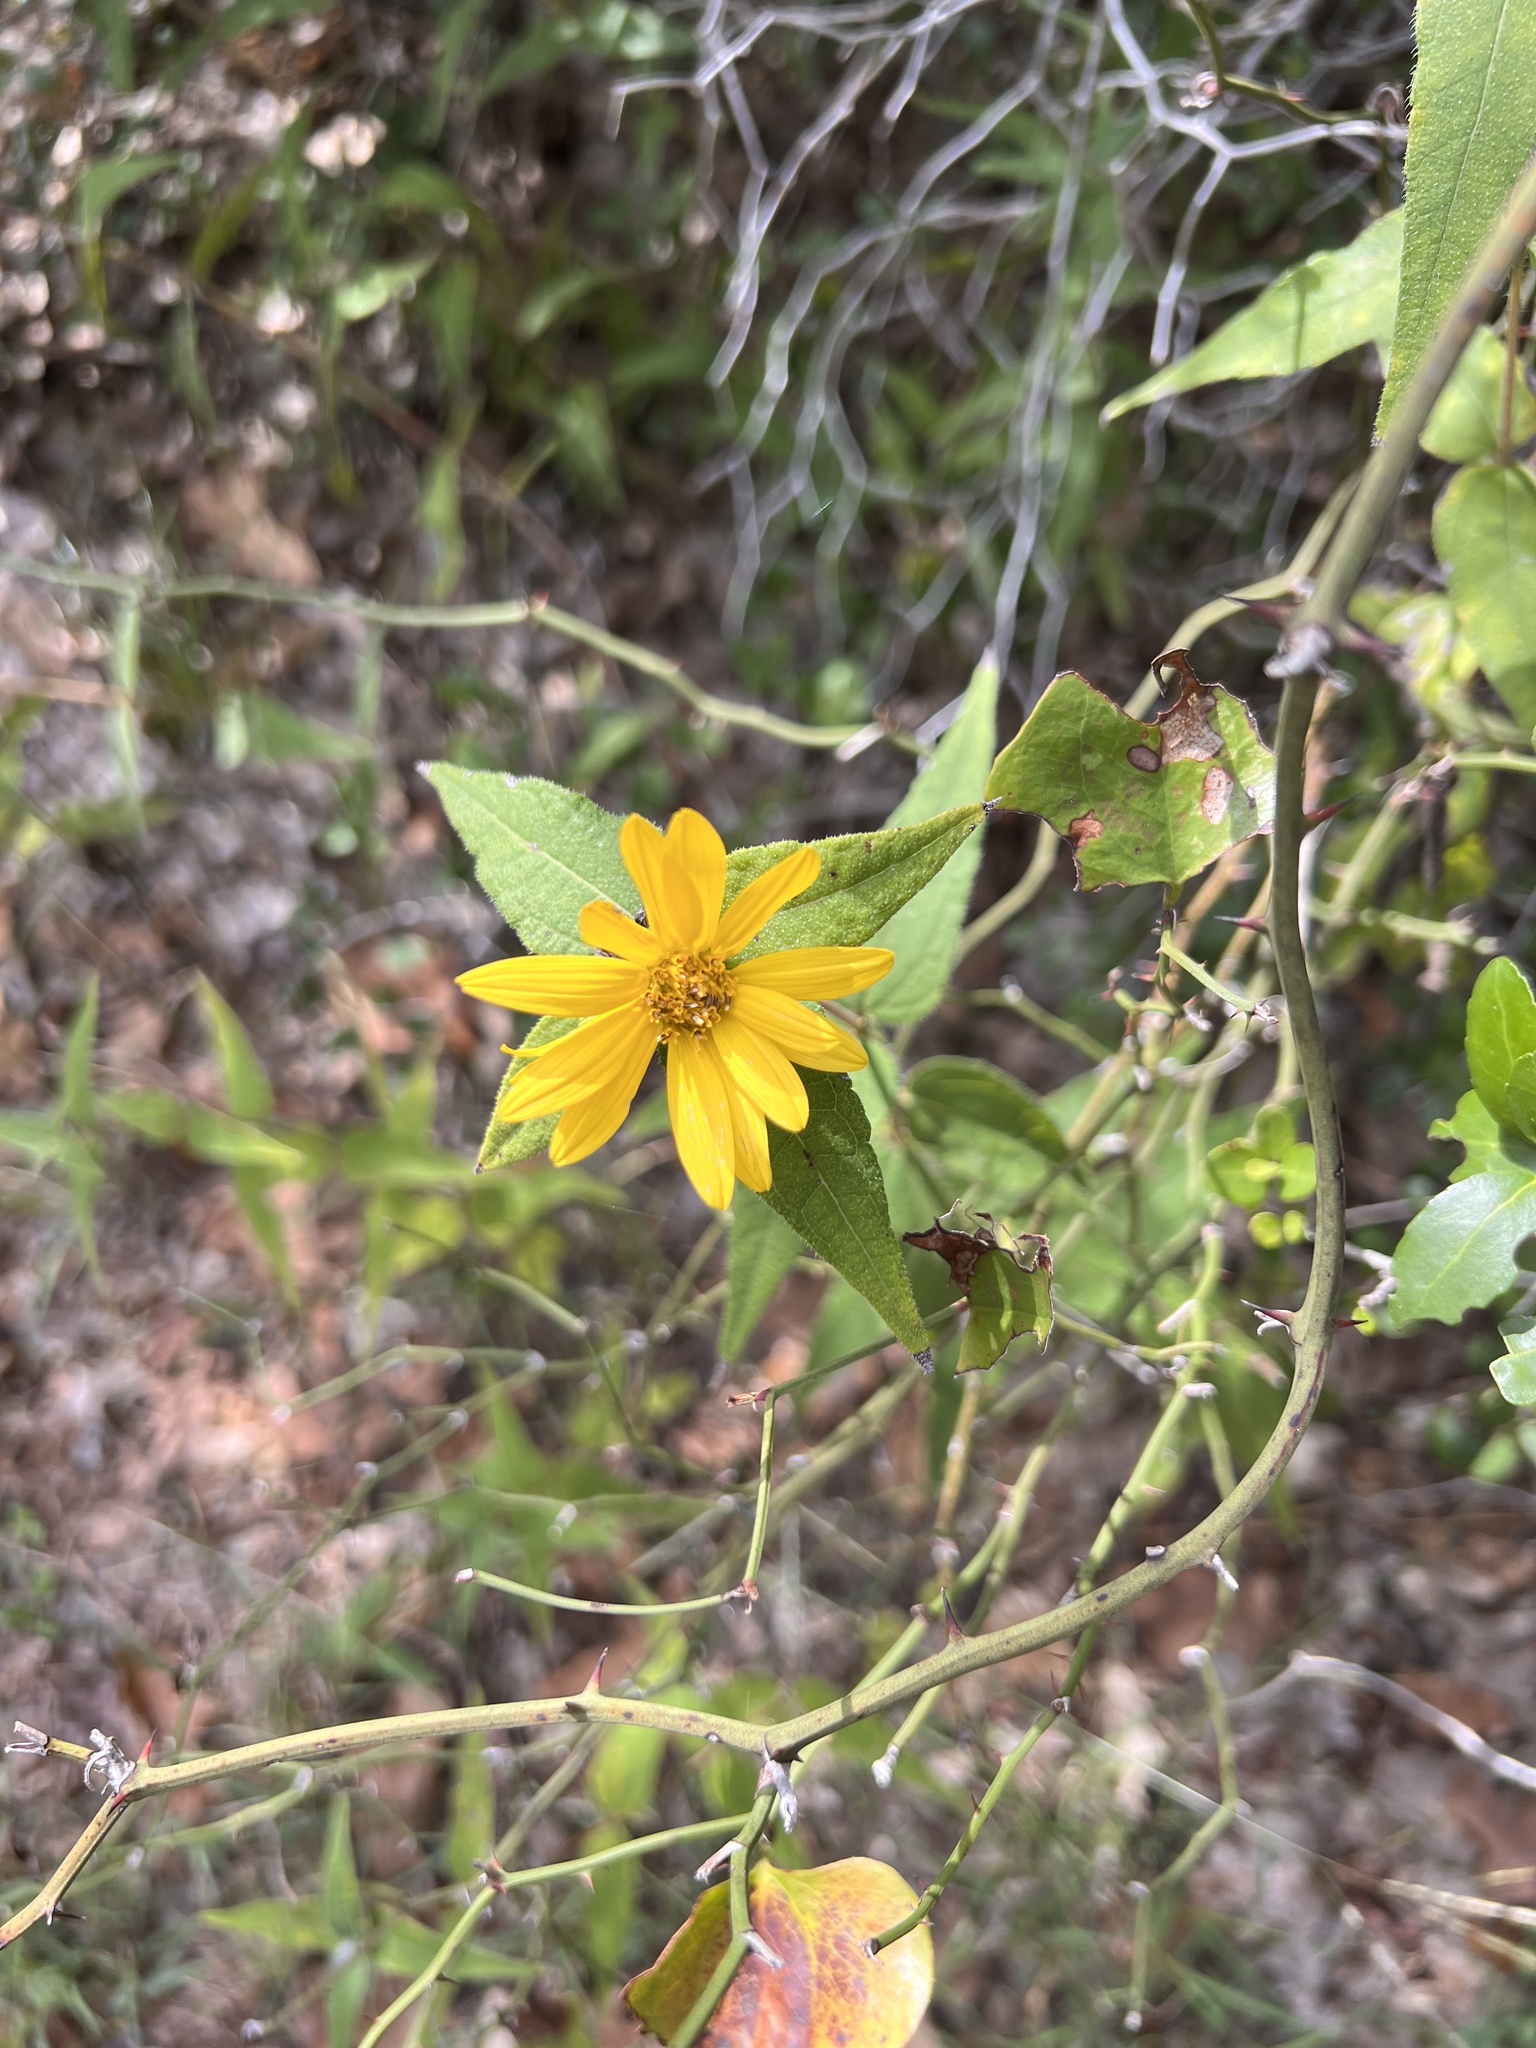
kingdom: Plantae
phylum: Tracheophyta
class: Magnoliopsida
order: Asterales
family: Asteraceae
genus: Helianthus
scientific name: Helianthus hirsutus
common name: Hairy sunflower
